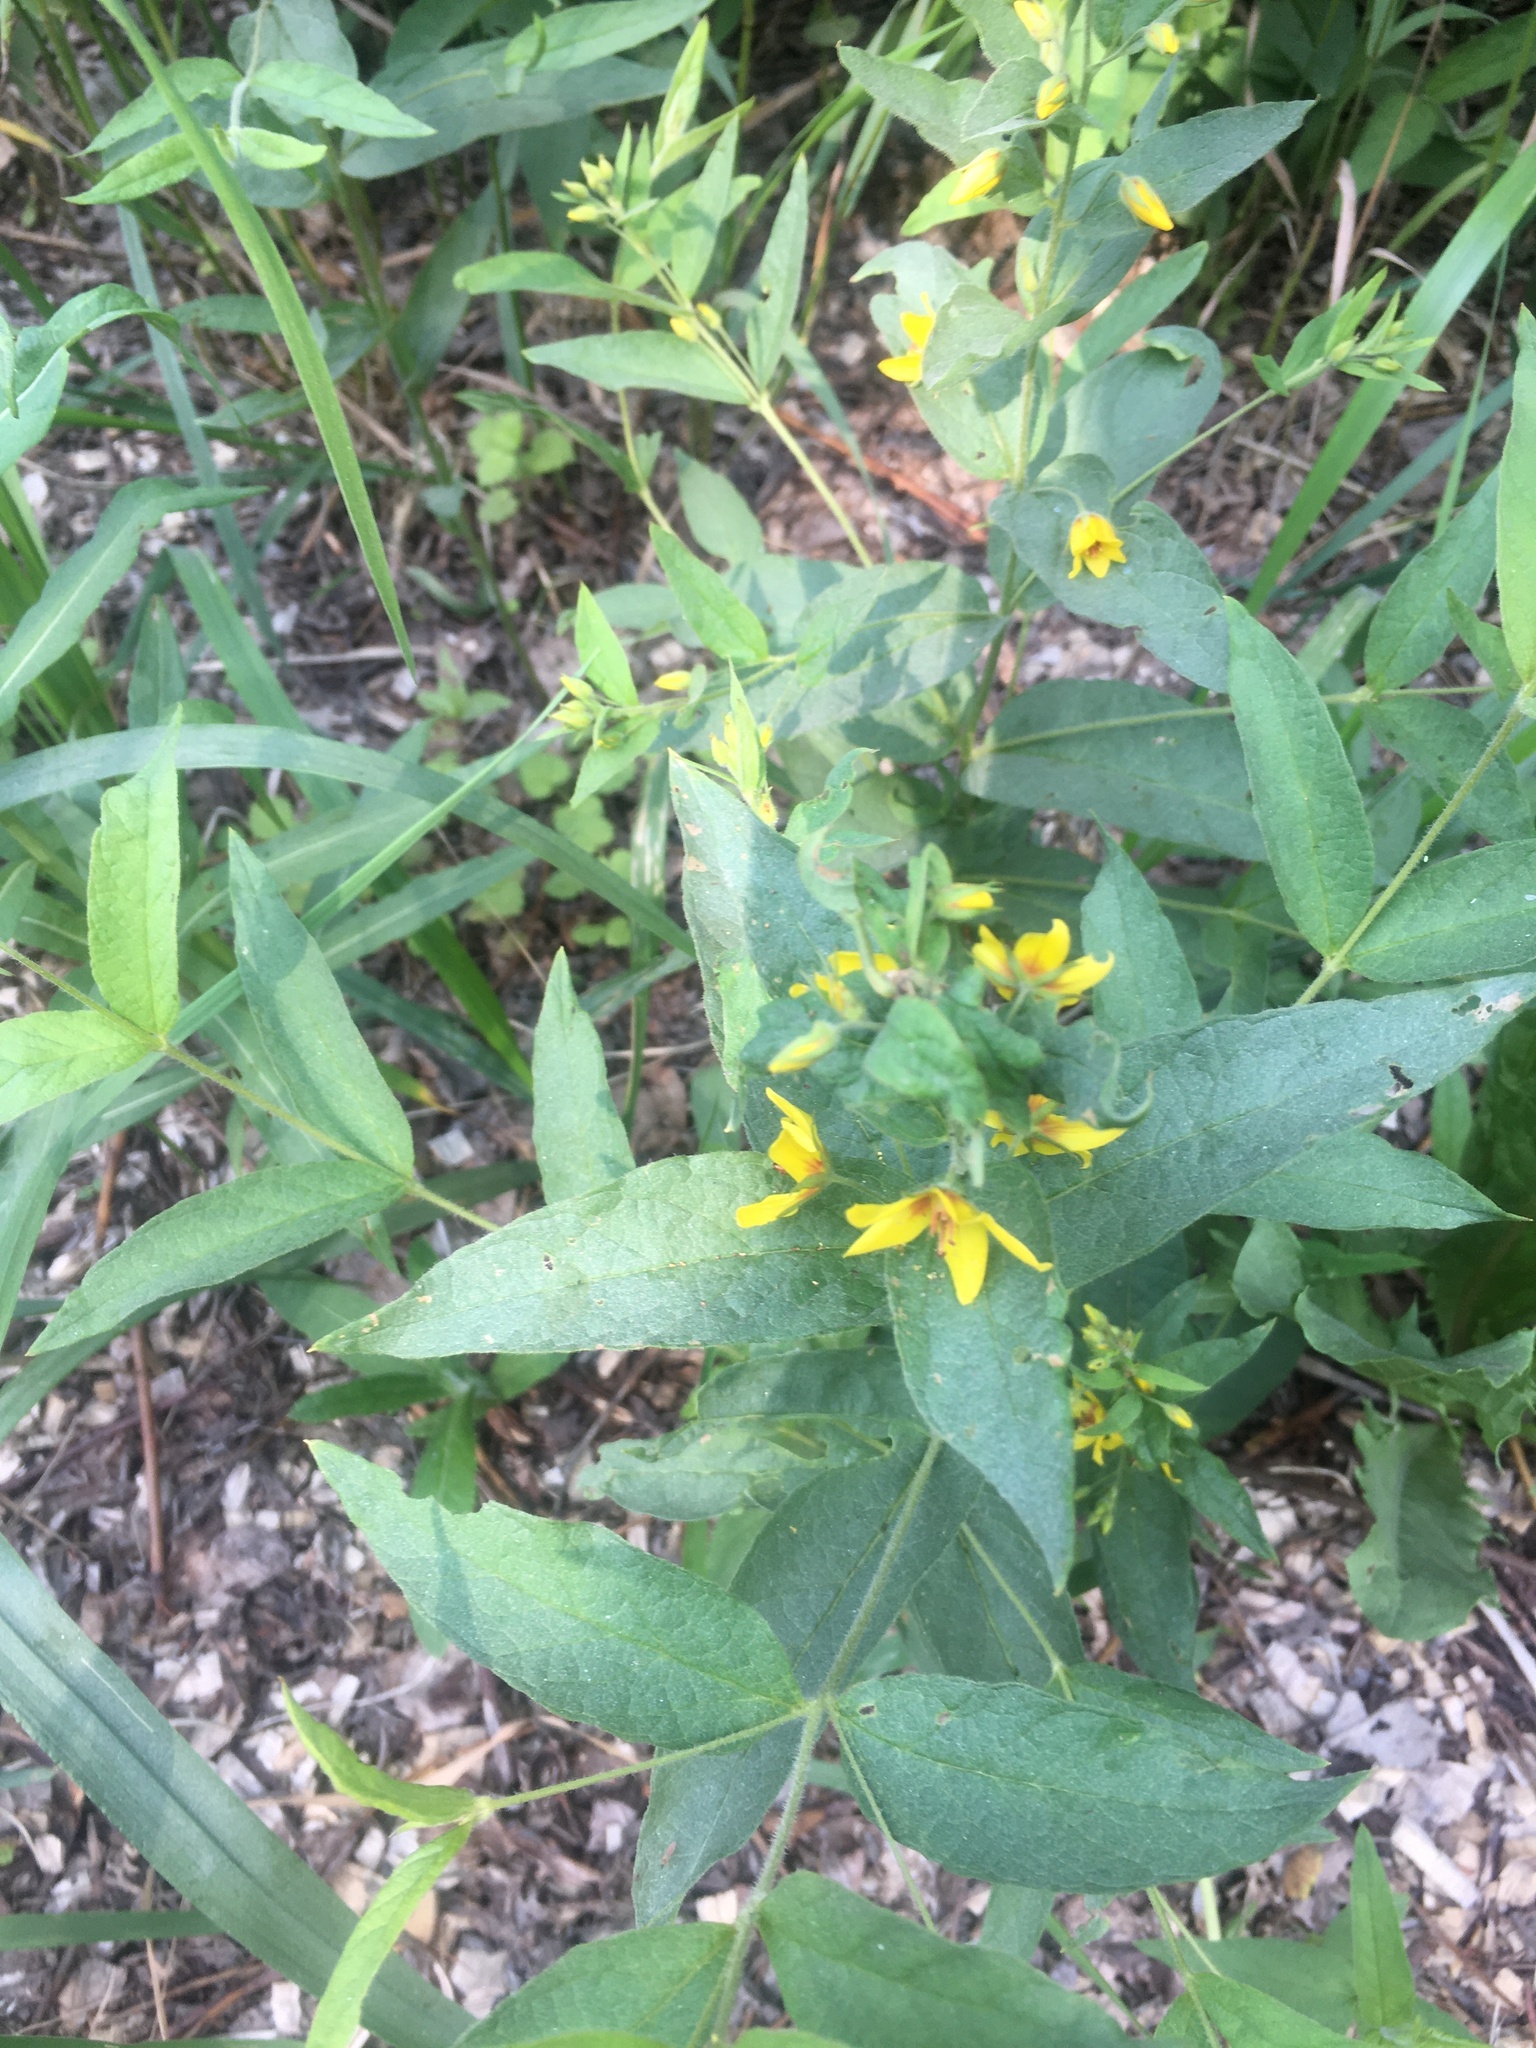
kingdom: Plantae
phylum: Tracheophyta
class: Magnoliopsida
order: Ericales
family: Primulaceae
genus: Lysimachia
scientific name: Lysimachia vulgaris
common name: Yellow loosestrife
